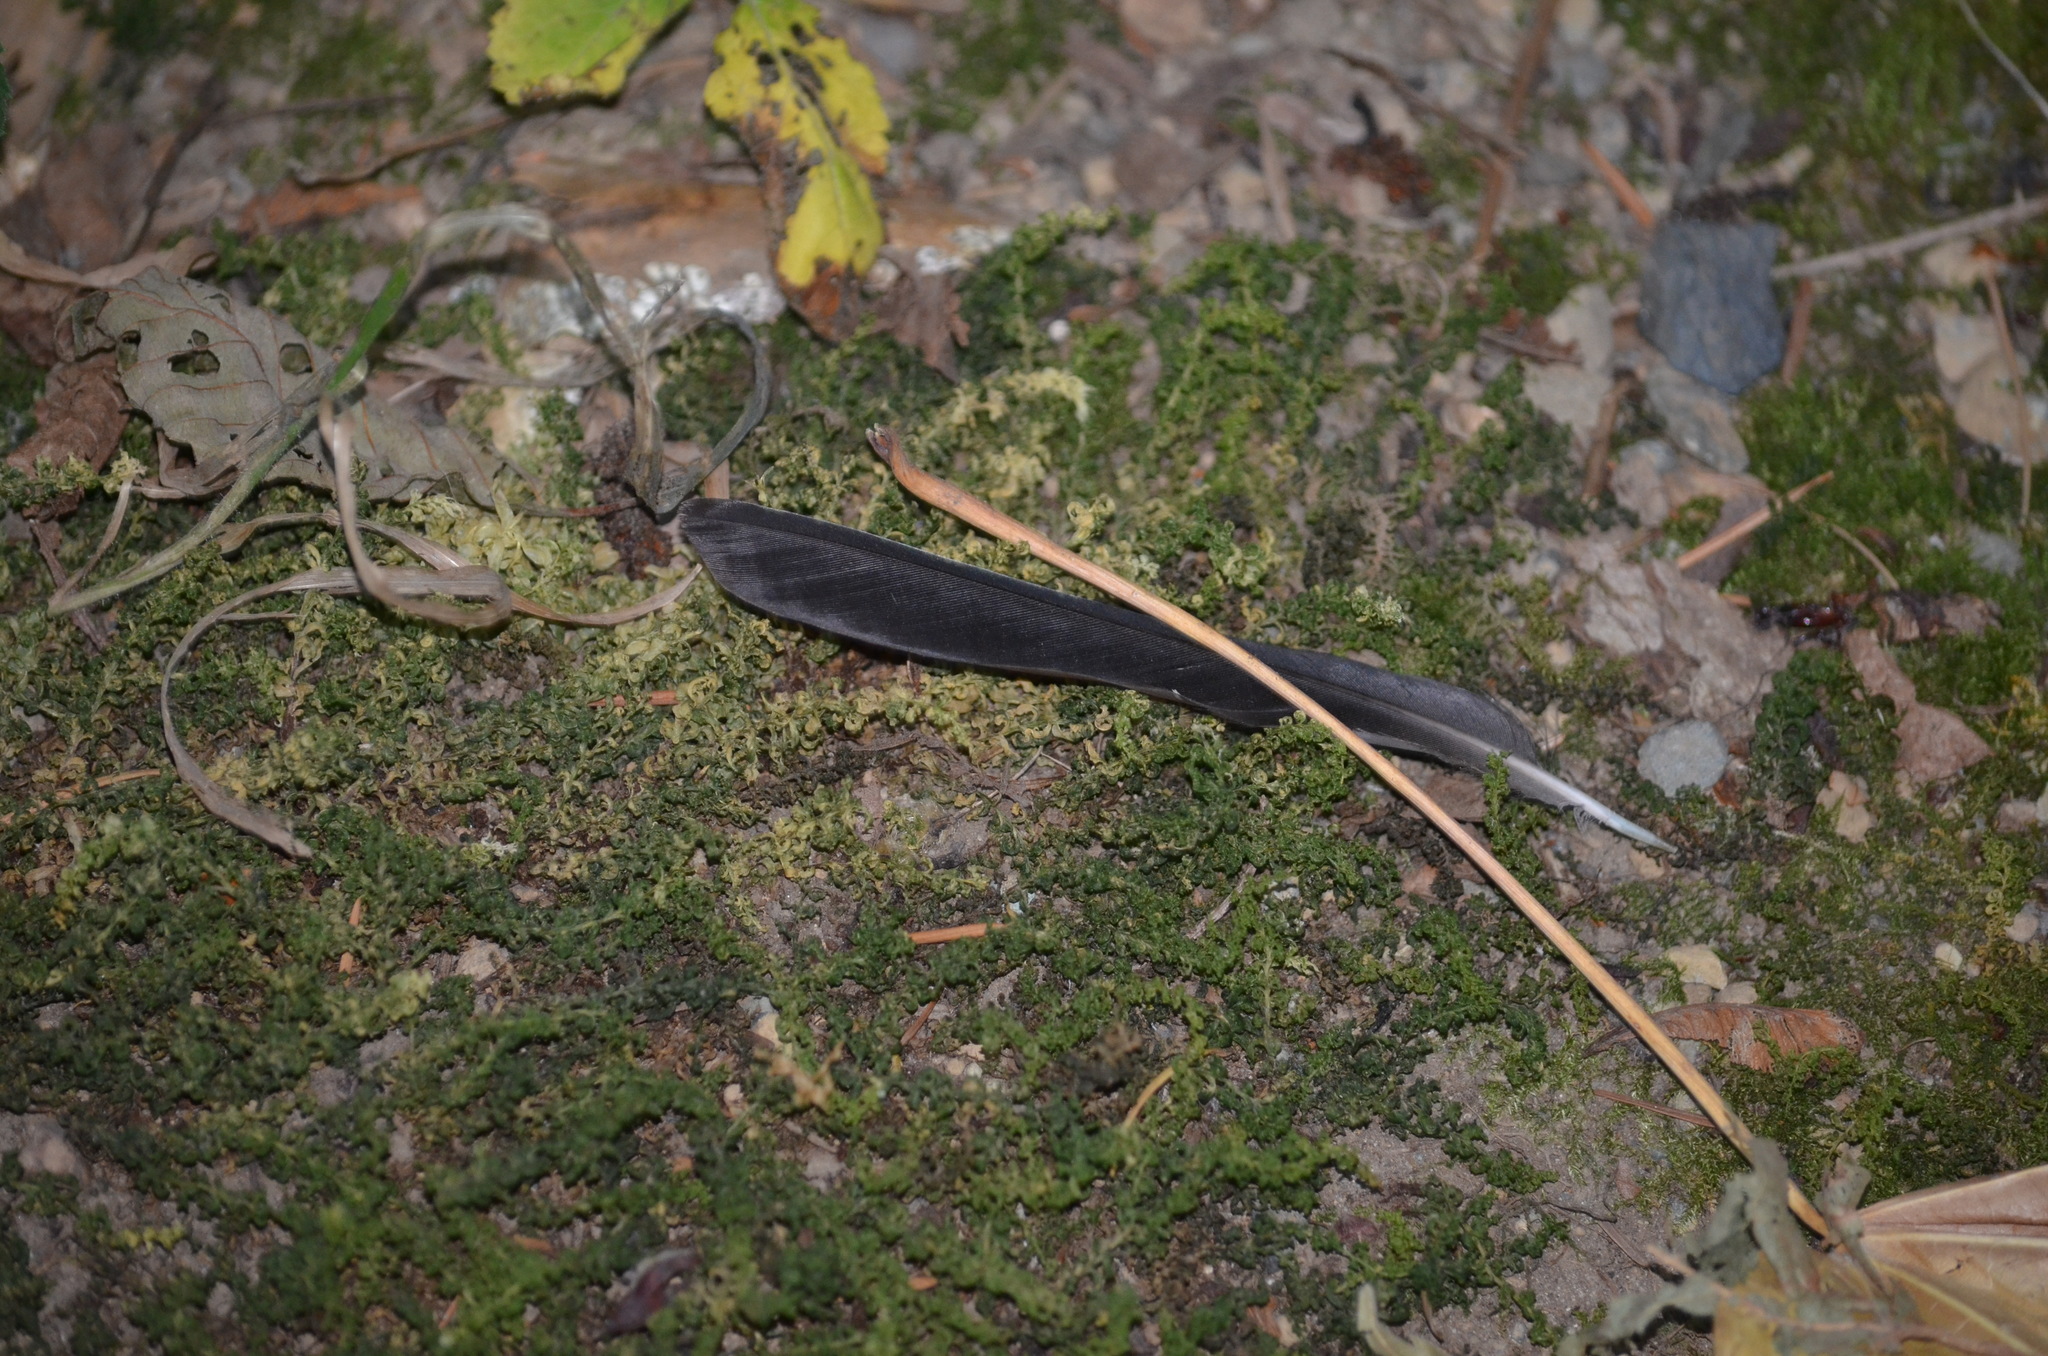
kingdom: Animalia
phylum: Chordata
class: Aves
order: Passeriformes
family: Turdidae
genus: Turdus
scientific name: Turdus migratorius
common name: American robin
